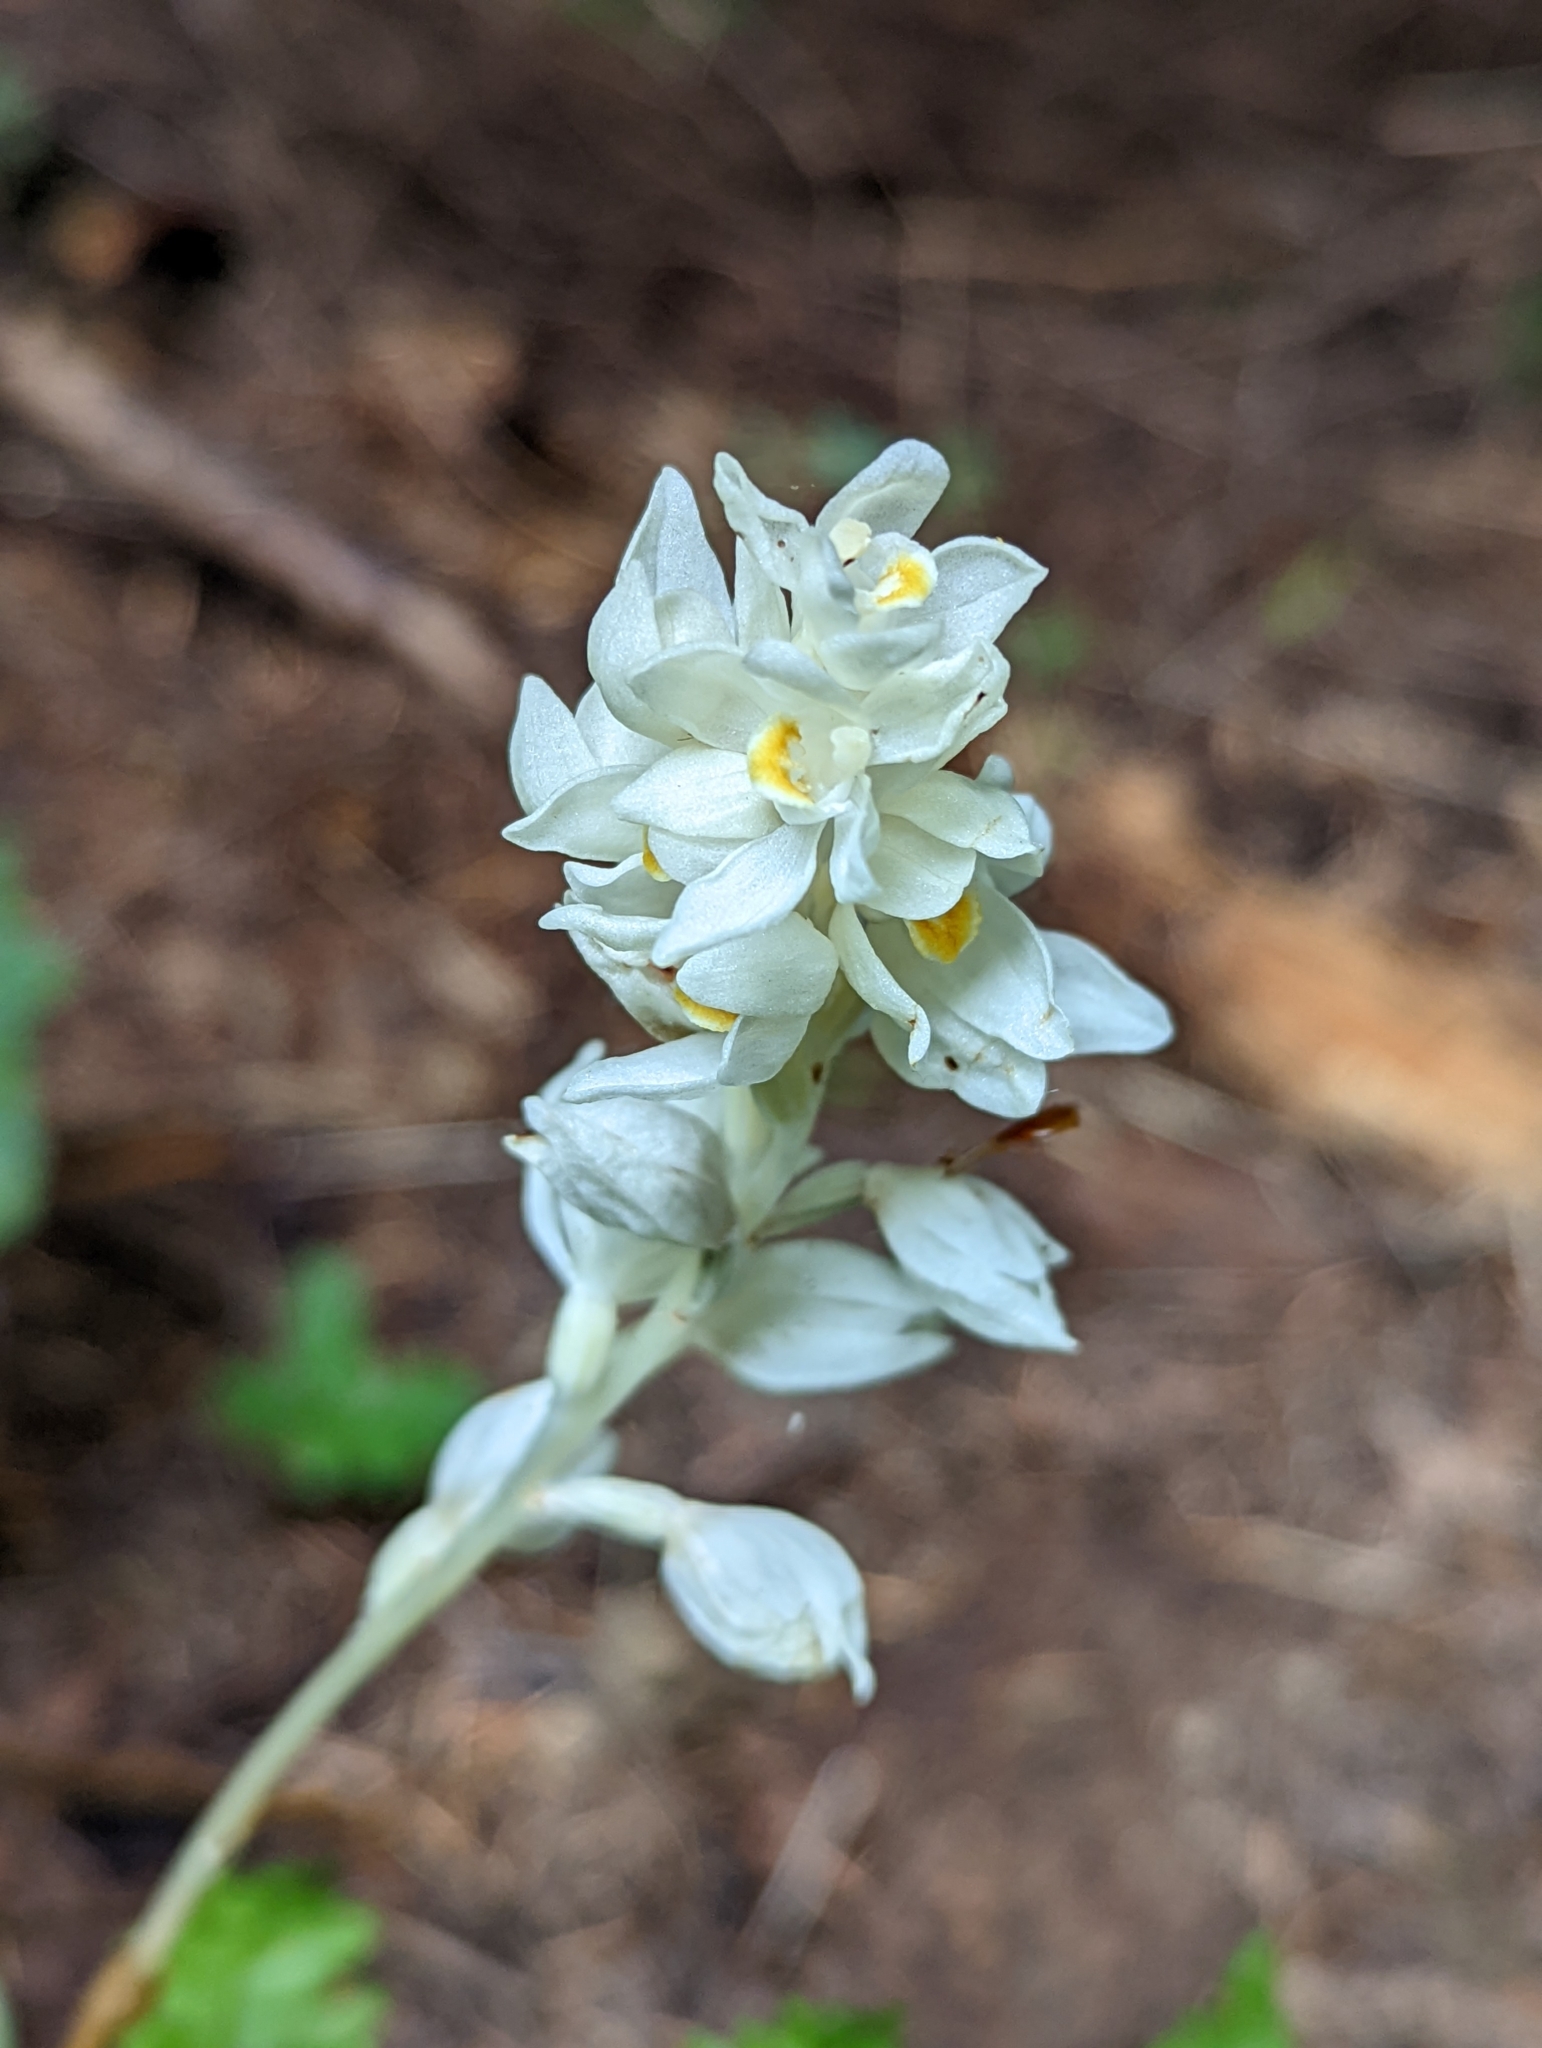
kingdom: Plantae
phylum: Tracheophyta
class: Liliopsida
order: Asparagales
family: Orchidaceae
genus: Cephalanthera
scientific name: Cephalanthera austiniae
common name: Phantom orchid
